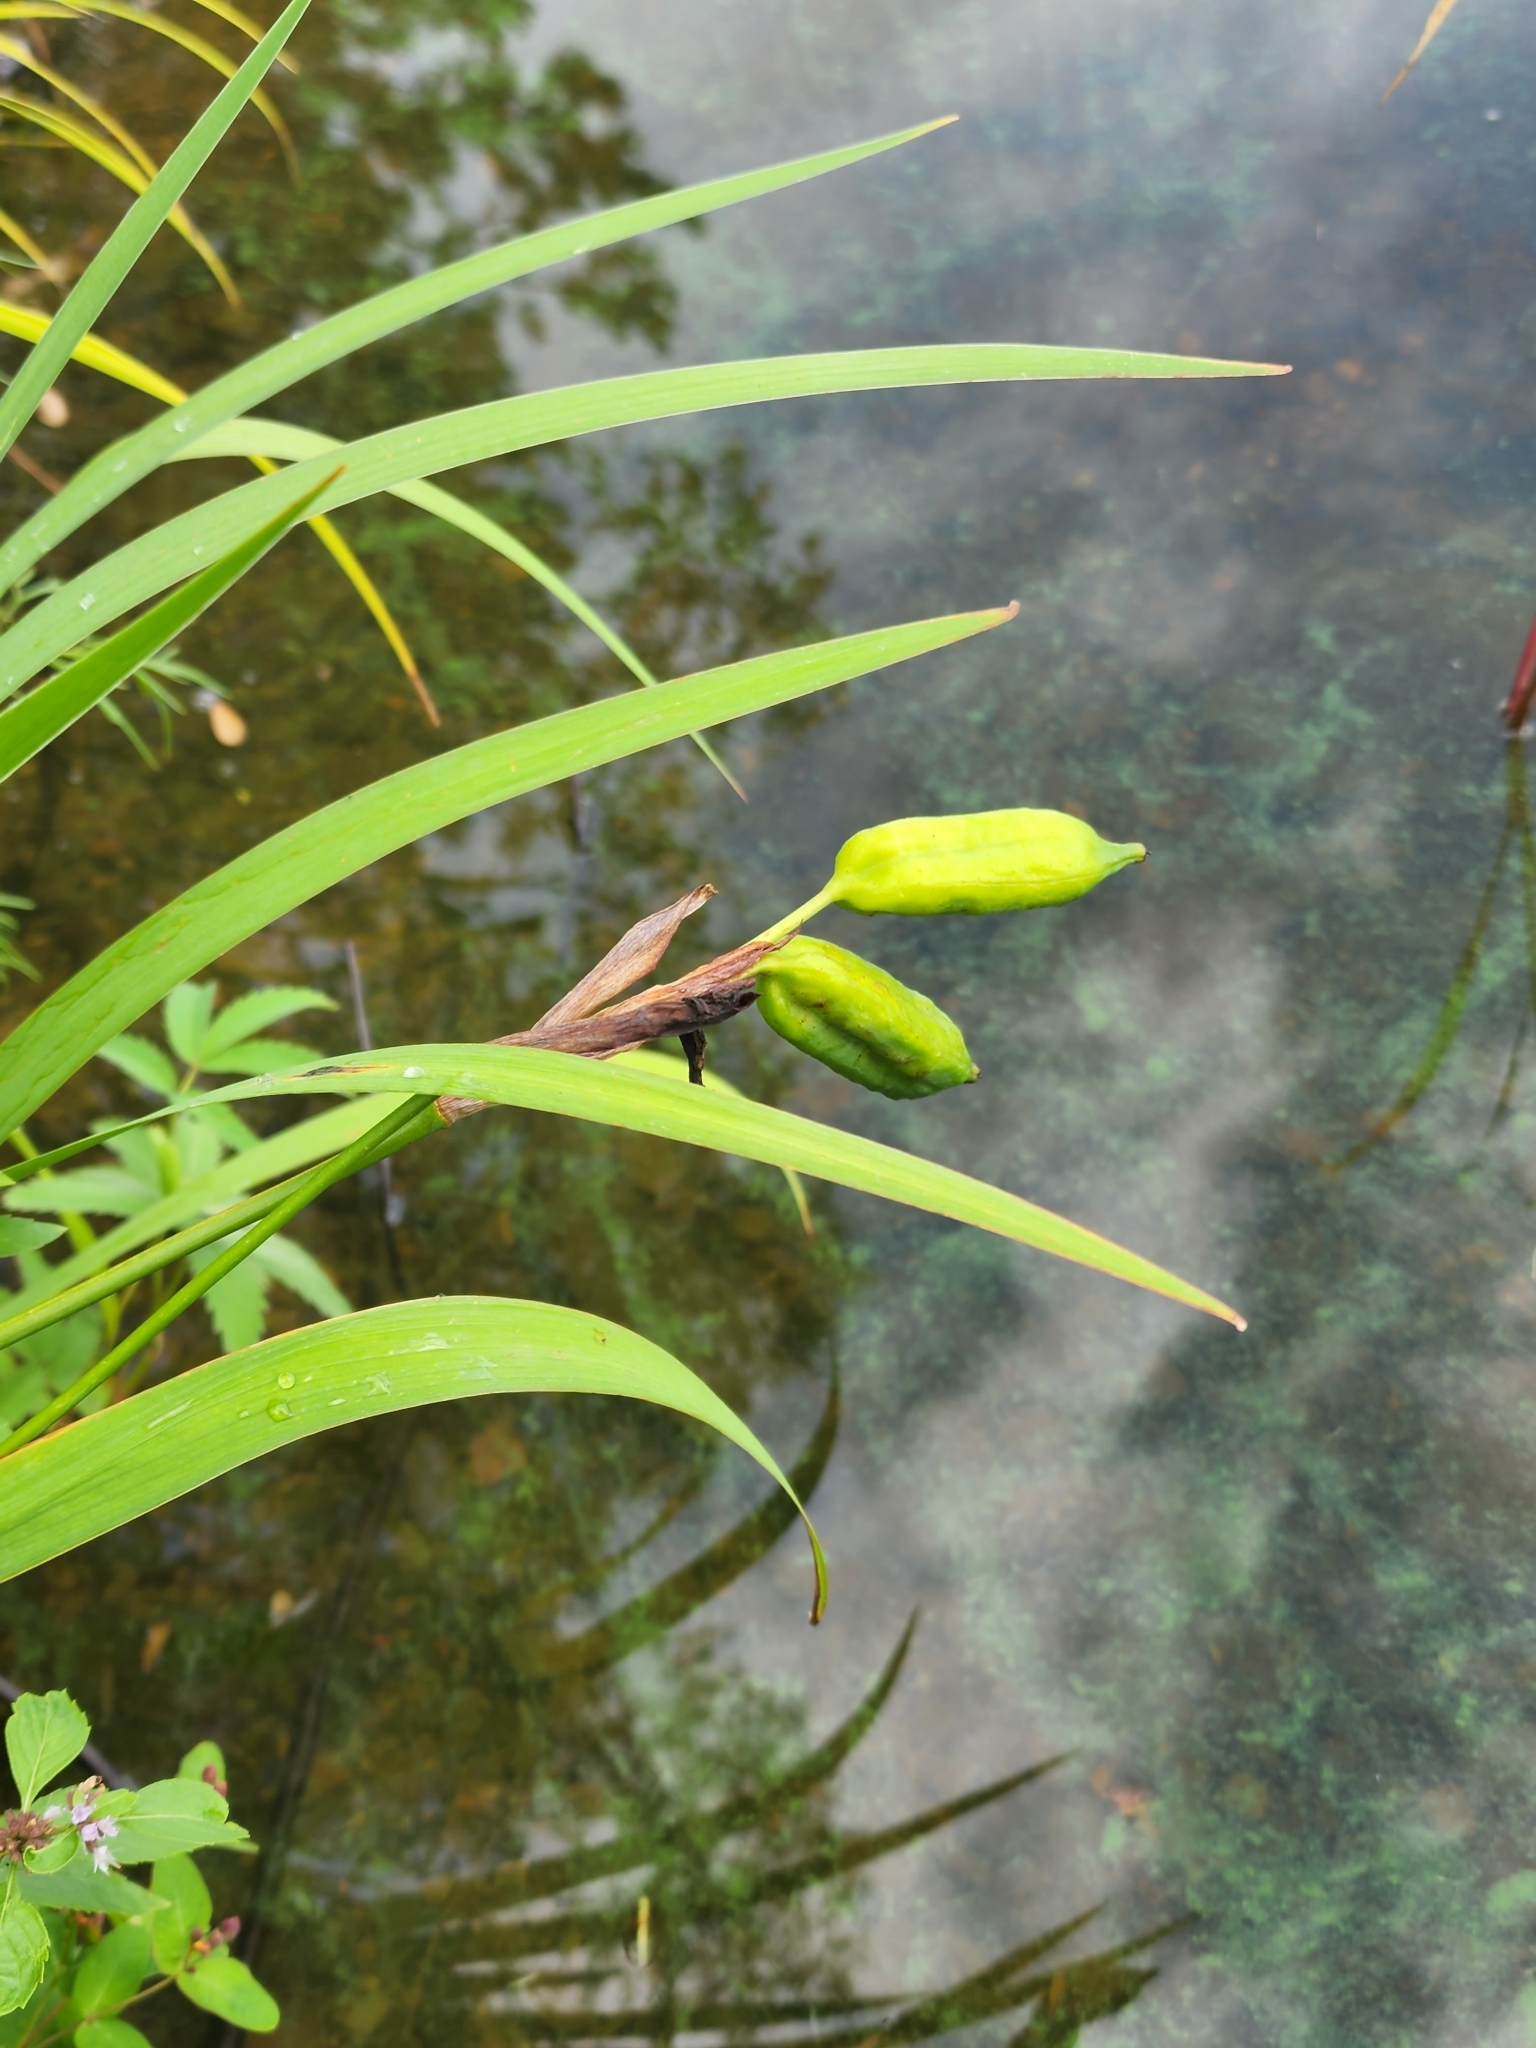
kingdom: Plantae
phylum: Tracheophyta
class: Liliopsida
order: Asparagales
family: Iridaceae
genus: Iris
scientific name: Iris versicolor
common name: Purple iris
